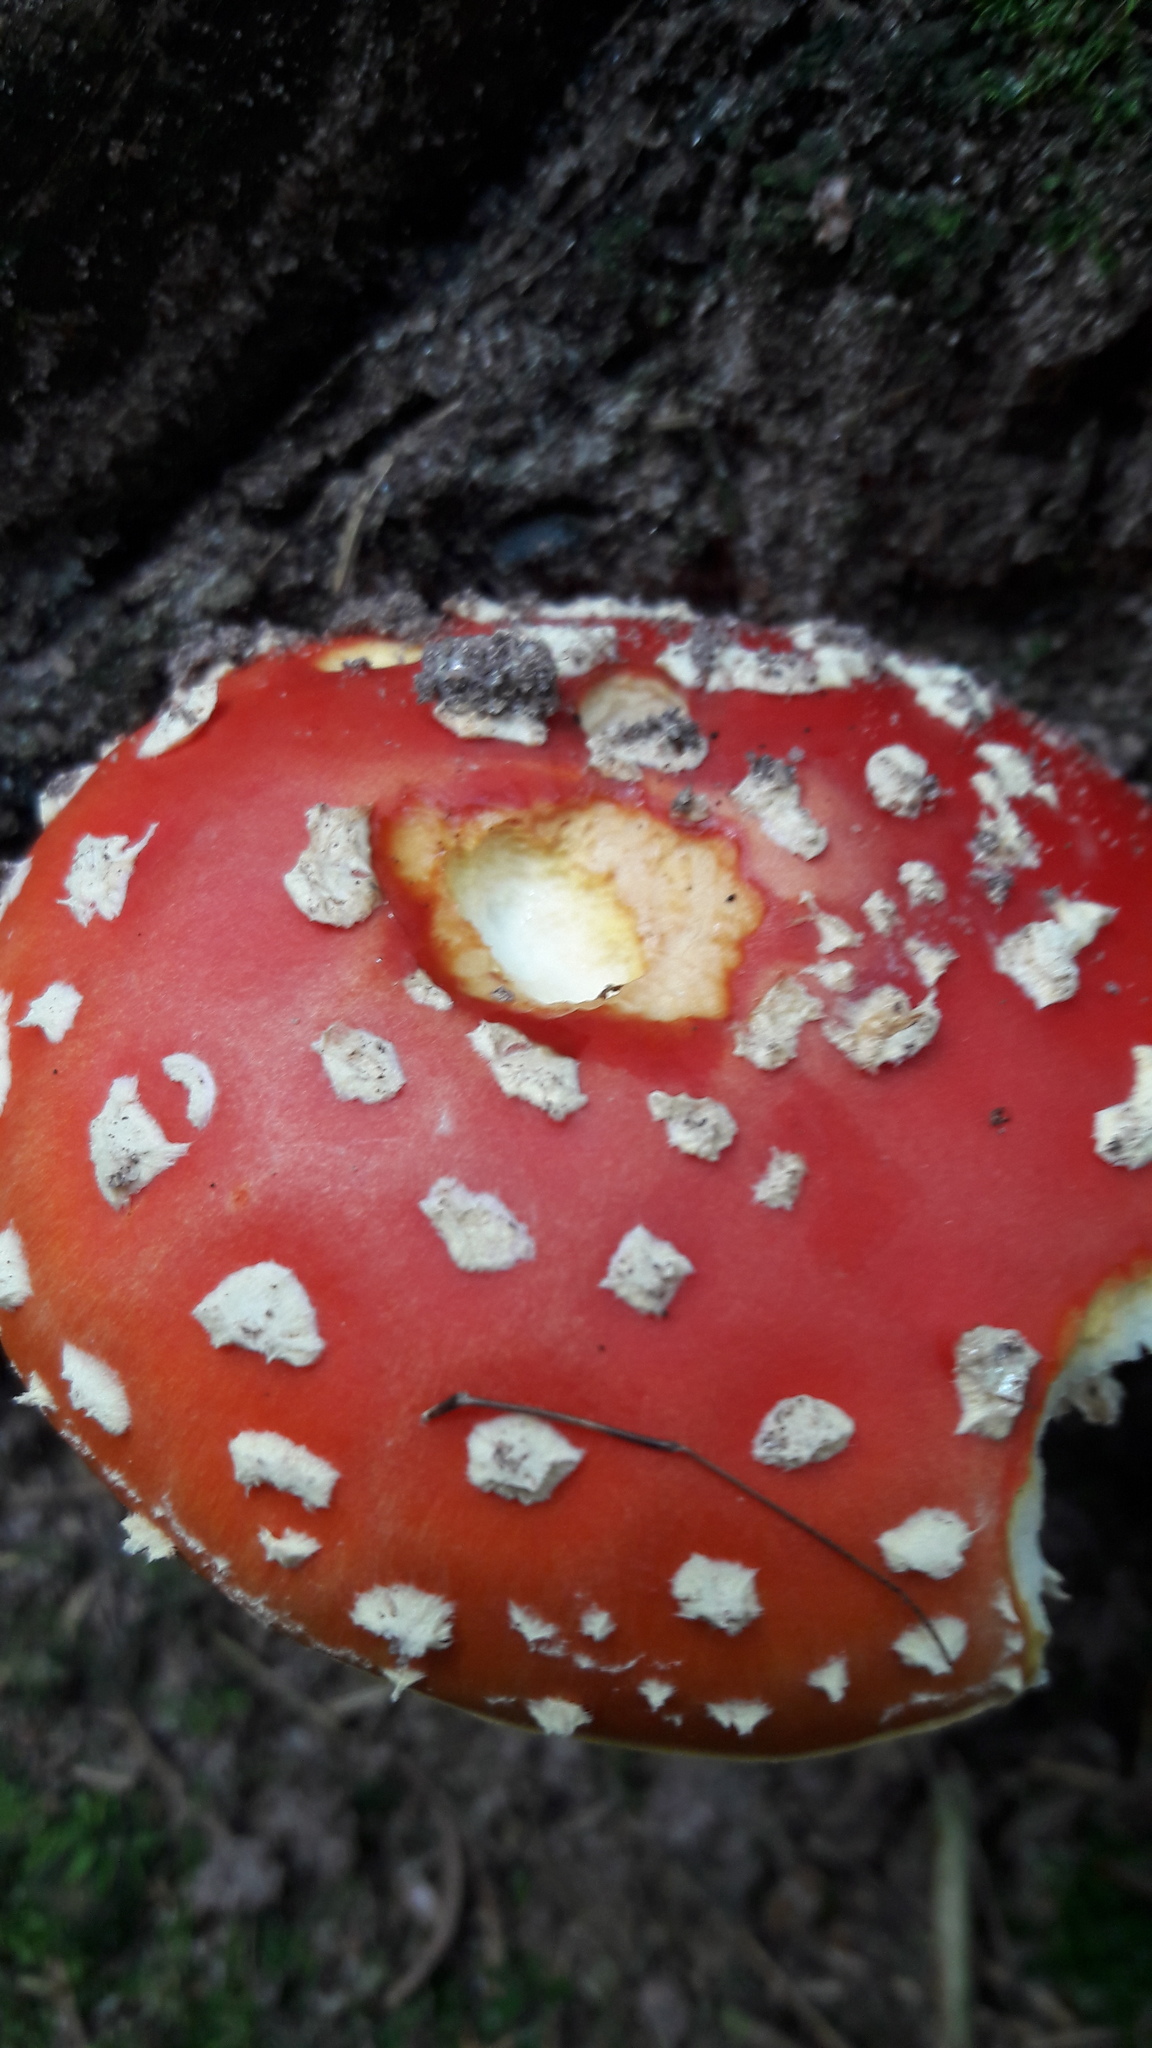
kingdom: Fungi
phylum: Basidiomycota
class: Agaricomycetes
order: Agaricales
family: Amanitaceae
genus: Amanita
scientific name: Amanita muscaria
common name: Fly agaric
